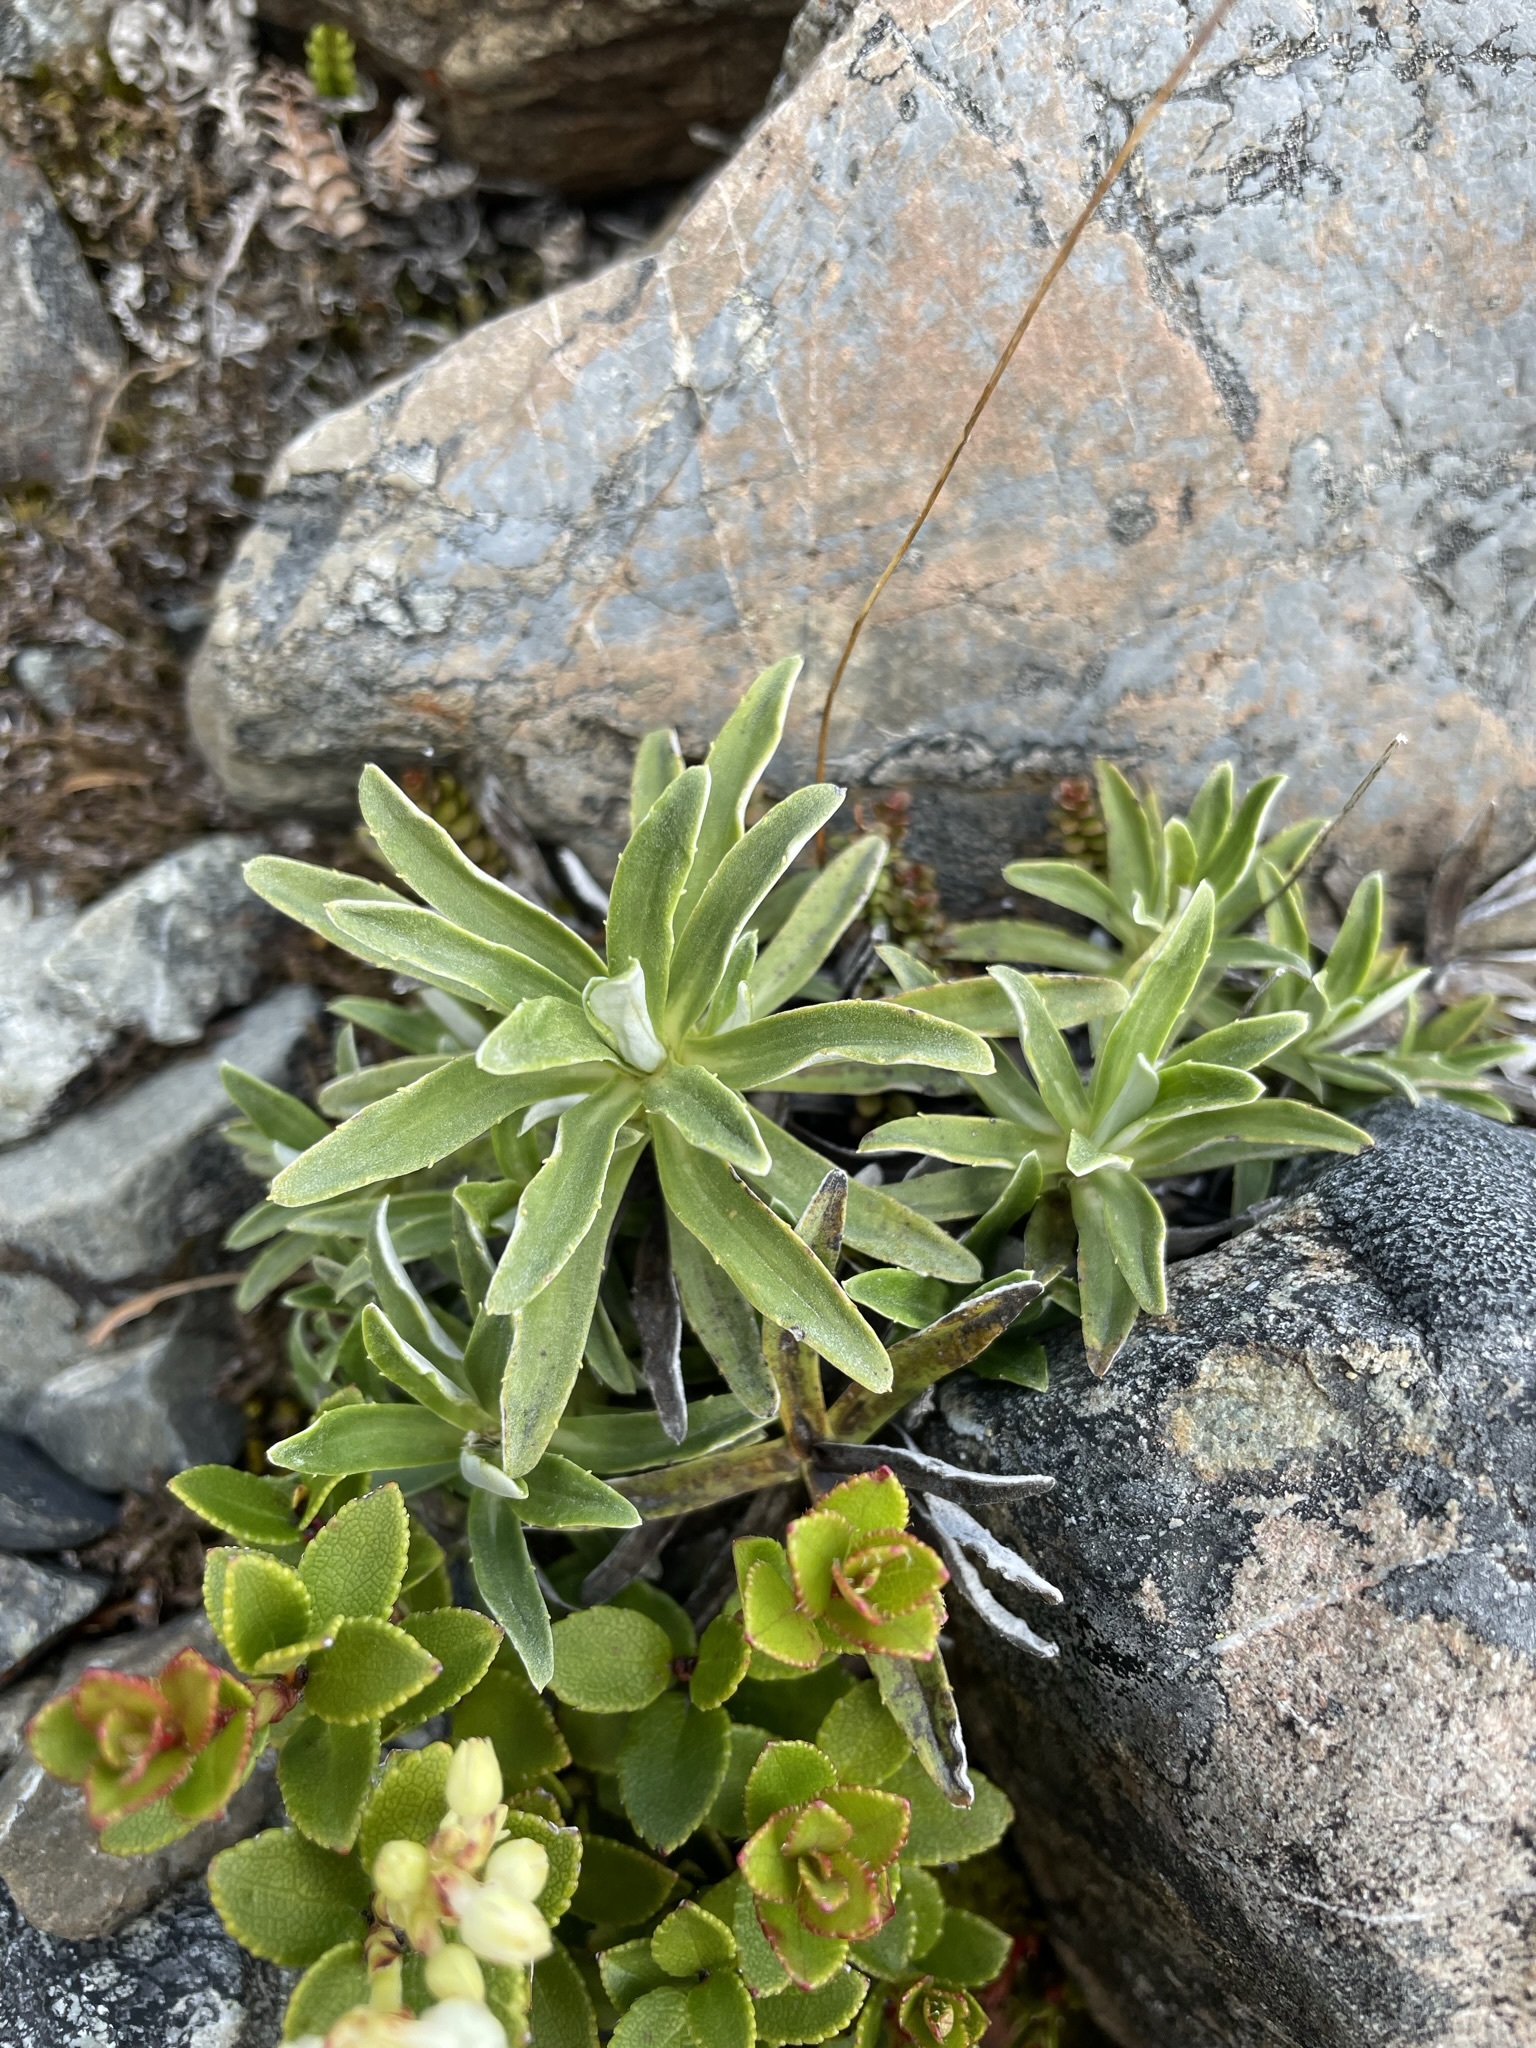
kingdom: Plantae
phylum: Tracheophyta
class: Magnoliopsida
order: Asterales
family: Asteraceae
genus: Celmisia
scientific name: Celmisia angustifolia
